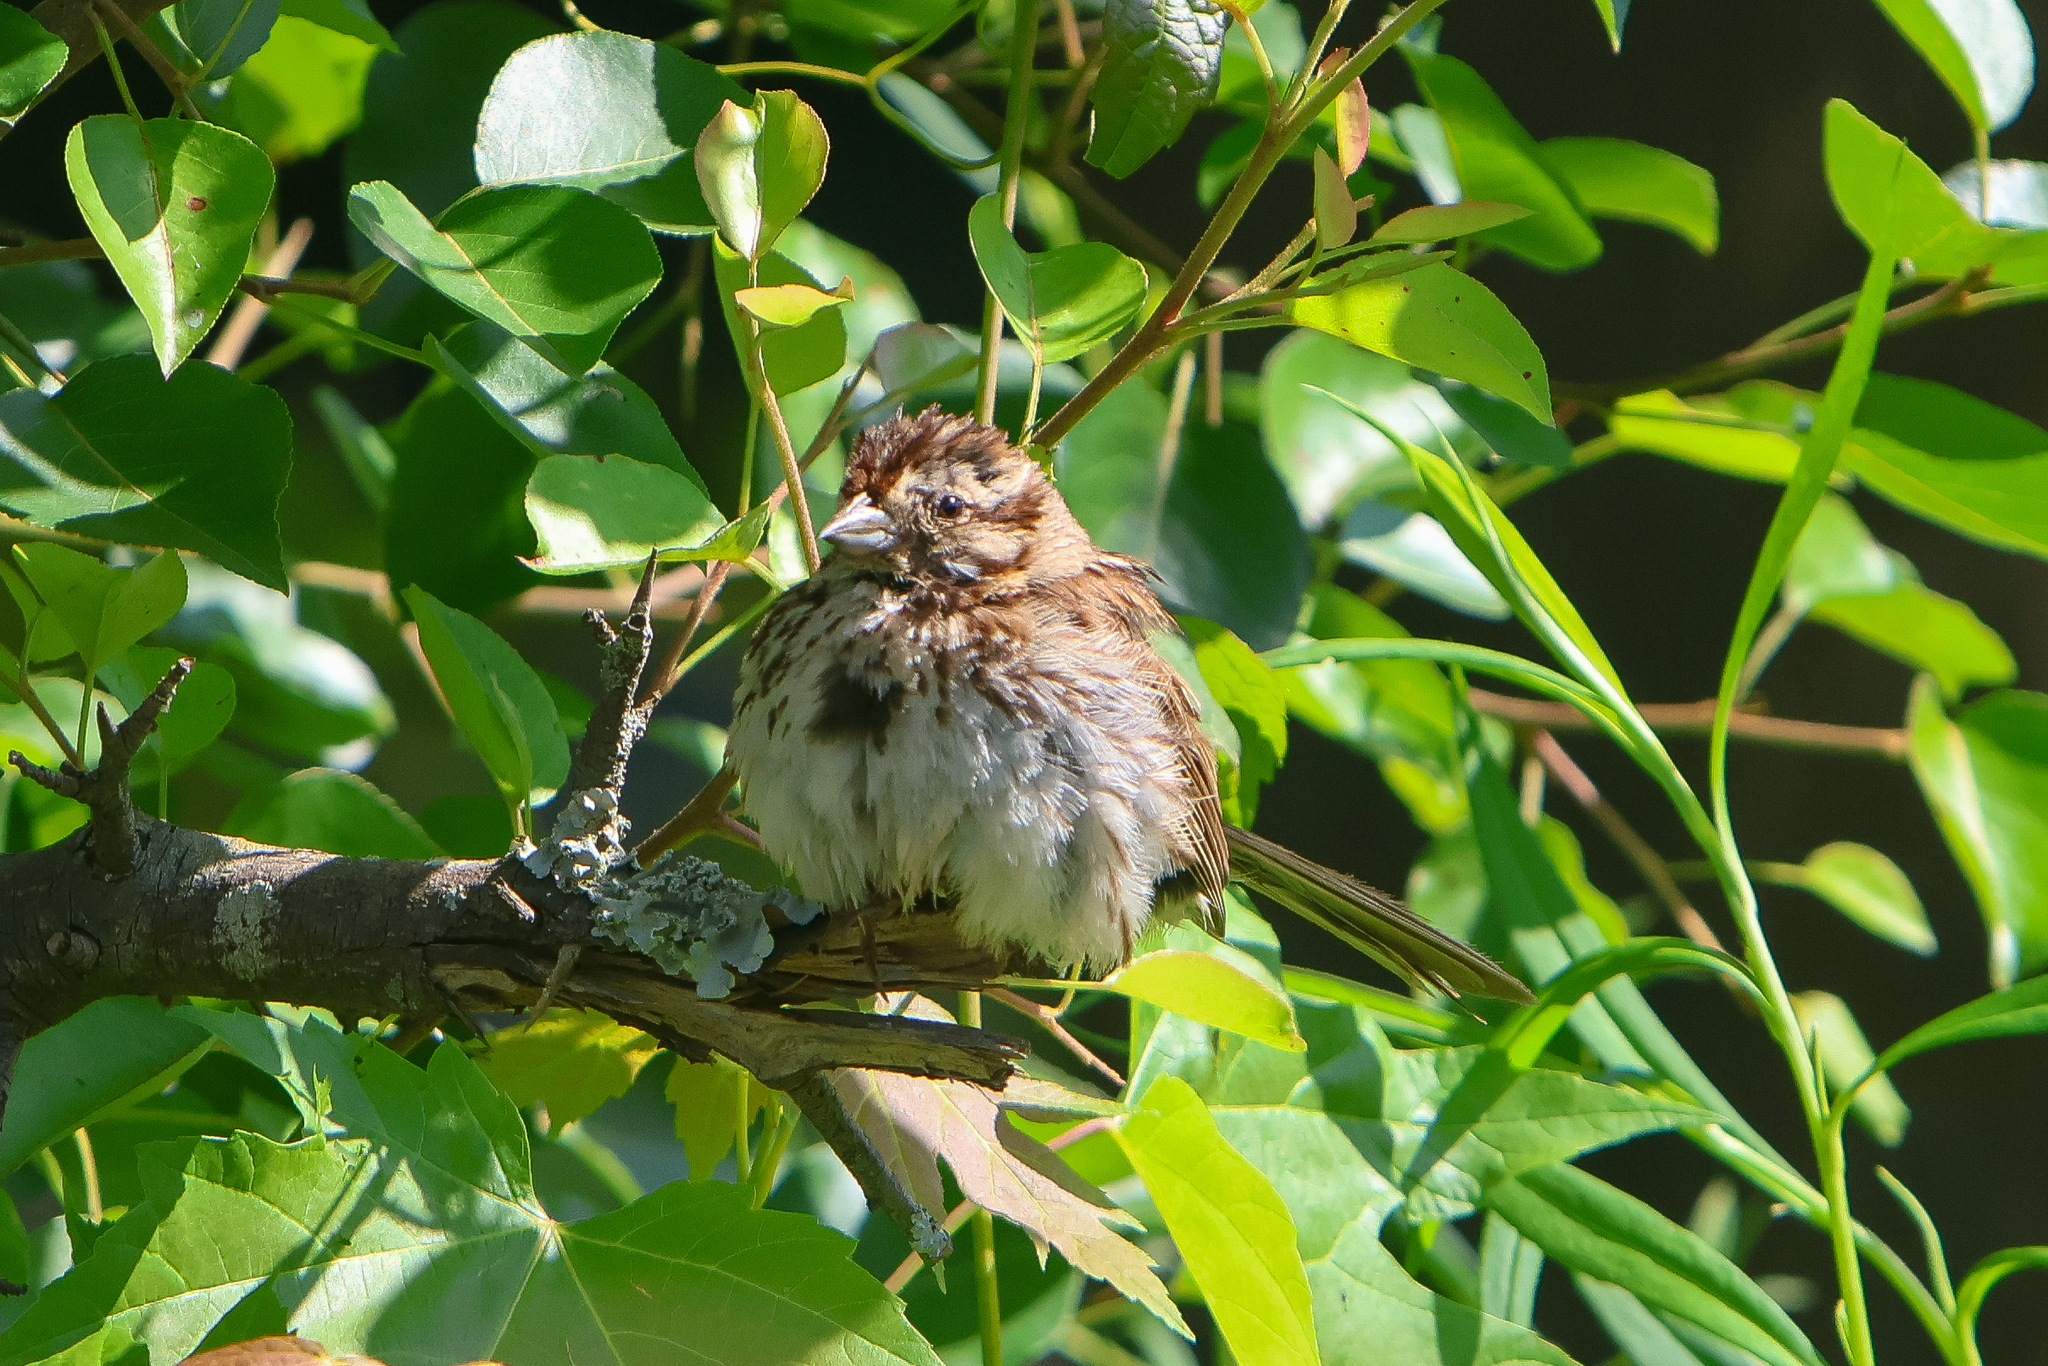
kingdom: Animalia
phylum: Chordata
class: Aves
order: Passeriformes
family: Passerellidae
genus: Melospiza
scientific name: Melospiza melodia
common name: Song sparrow
